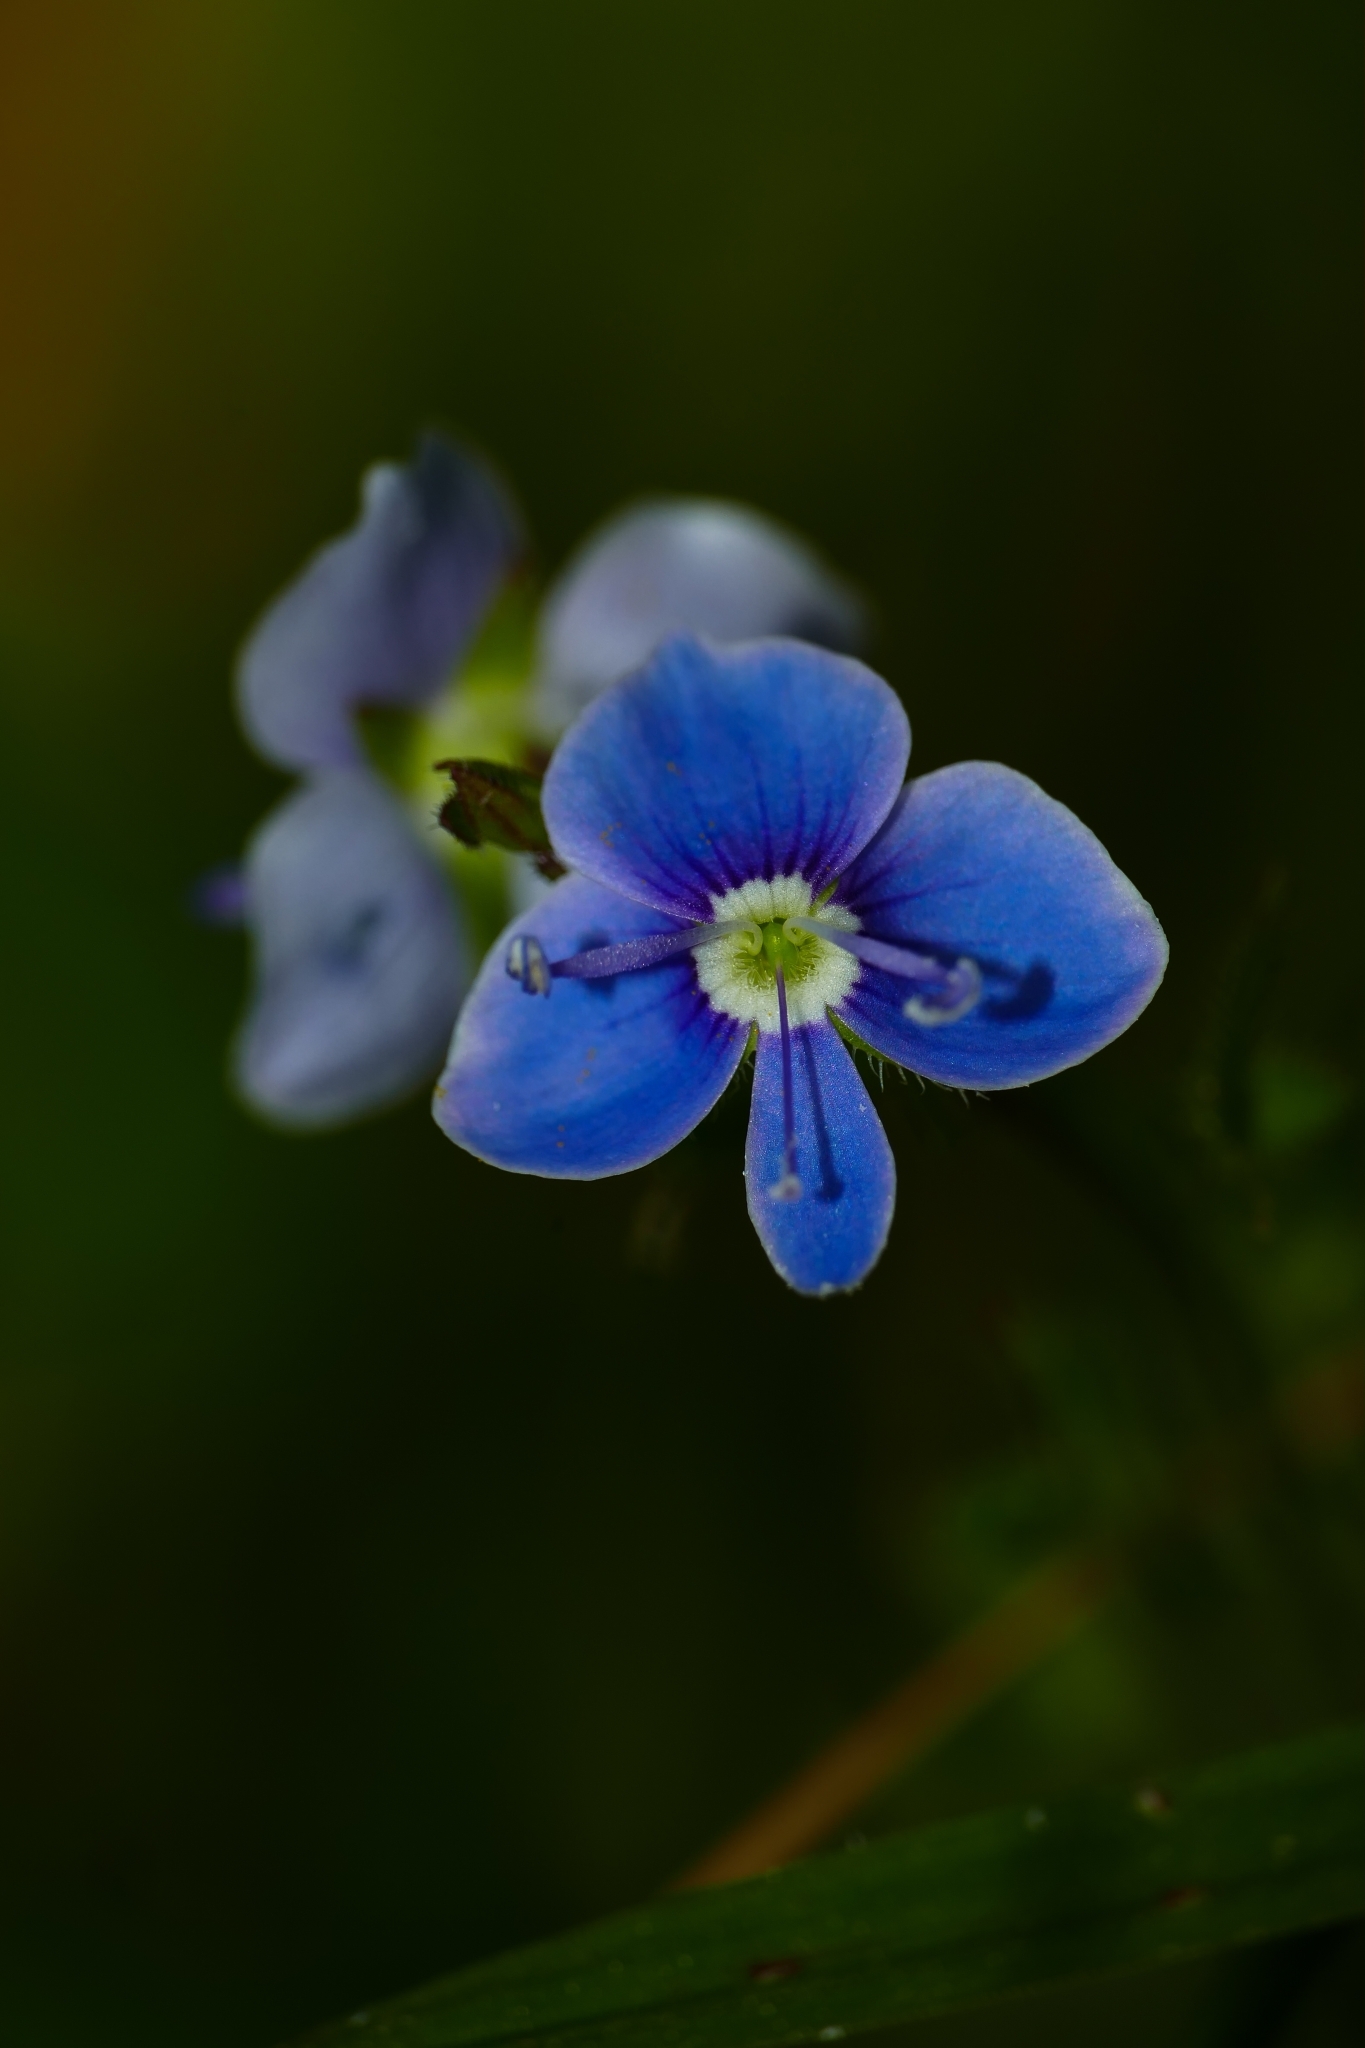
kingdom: Plantae
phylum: Tracheophyta
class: Magnoliopsida
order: Lamiales
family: Plantaginaceae
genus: Veronica
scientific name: Veronica chamaedrys
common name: Germander speedwell
